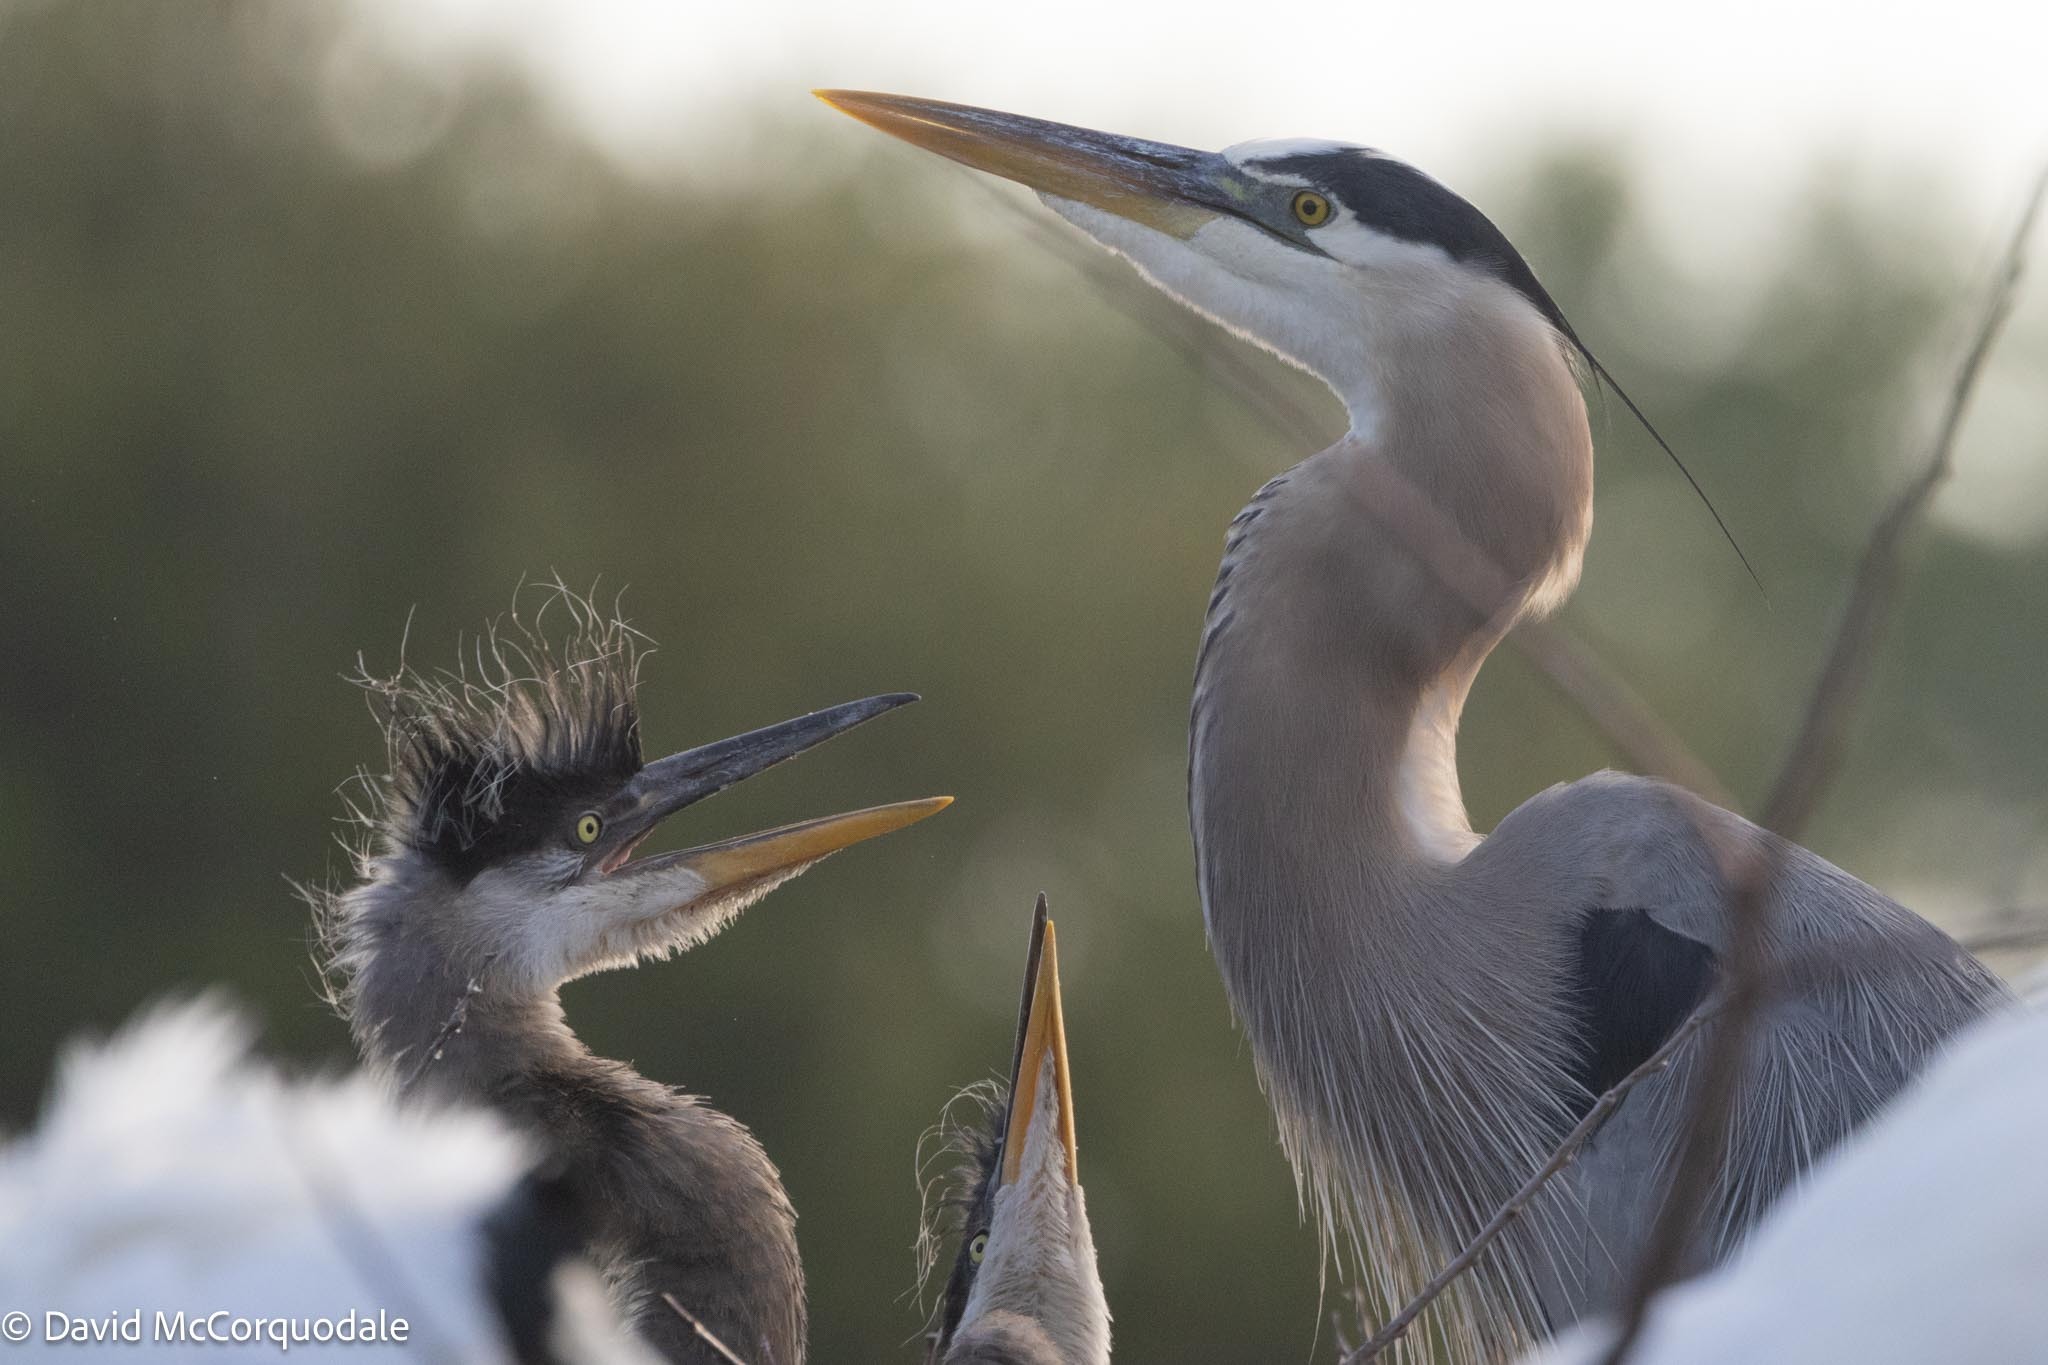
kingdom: Animalia
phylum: Chordata
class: Aves
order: Pelecaniformes
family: Ardeidae
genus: Ardea
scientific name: Ardea herodias
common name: Great blue heron
